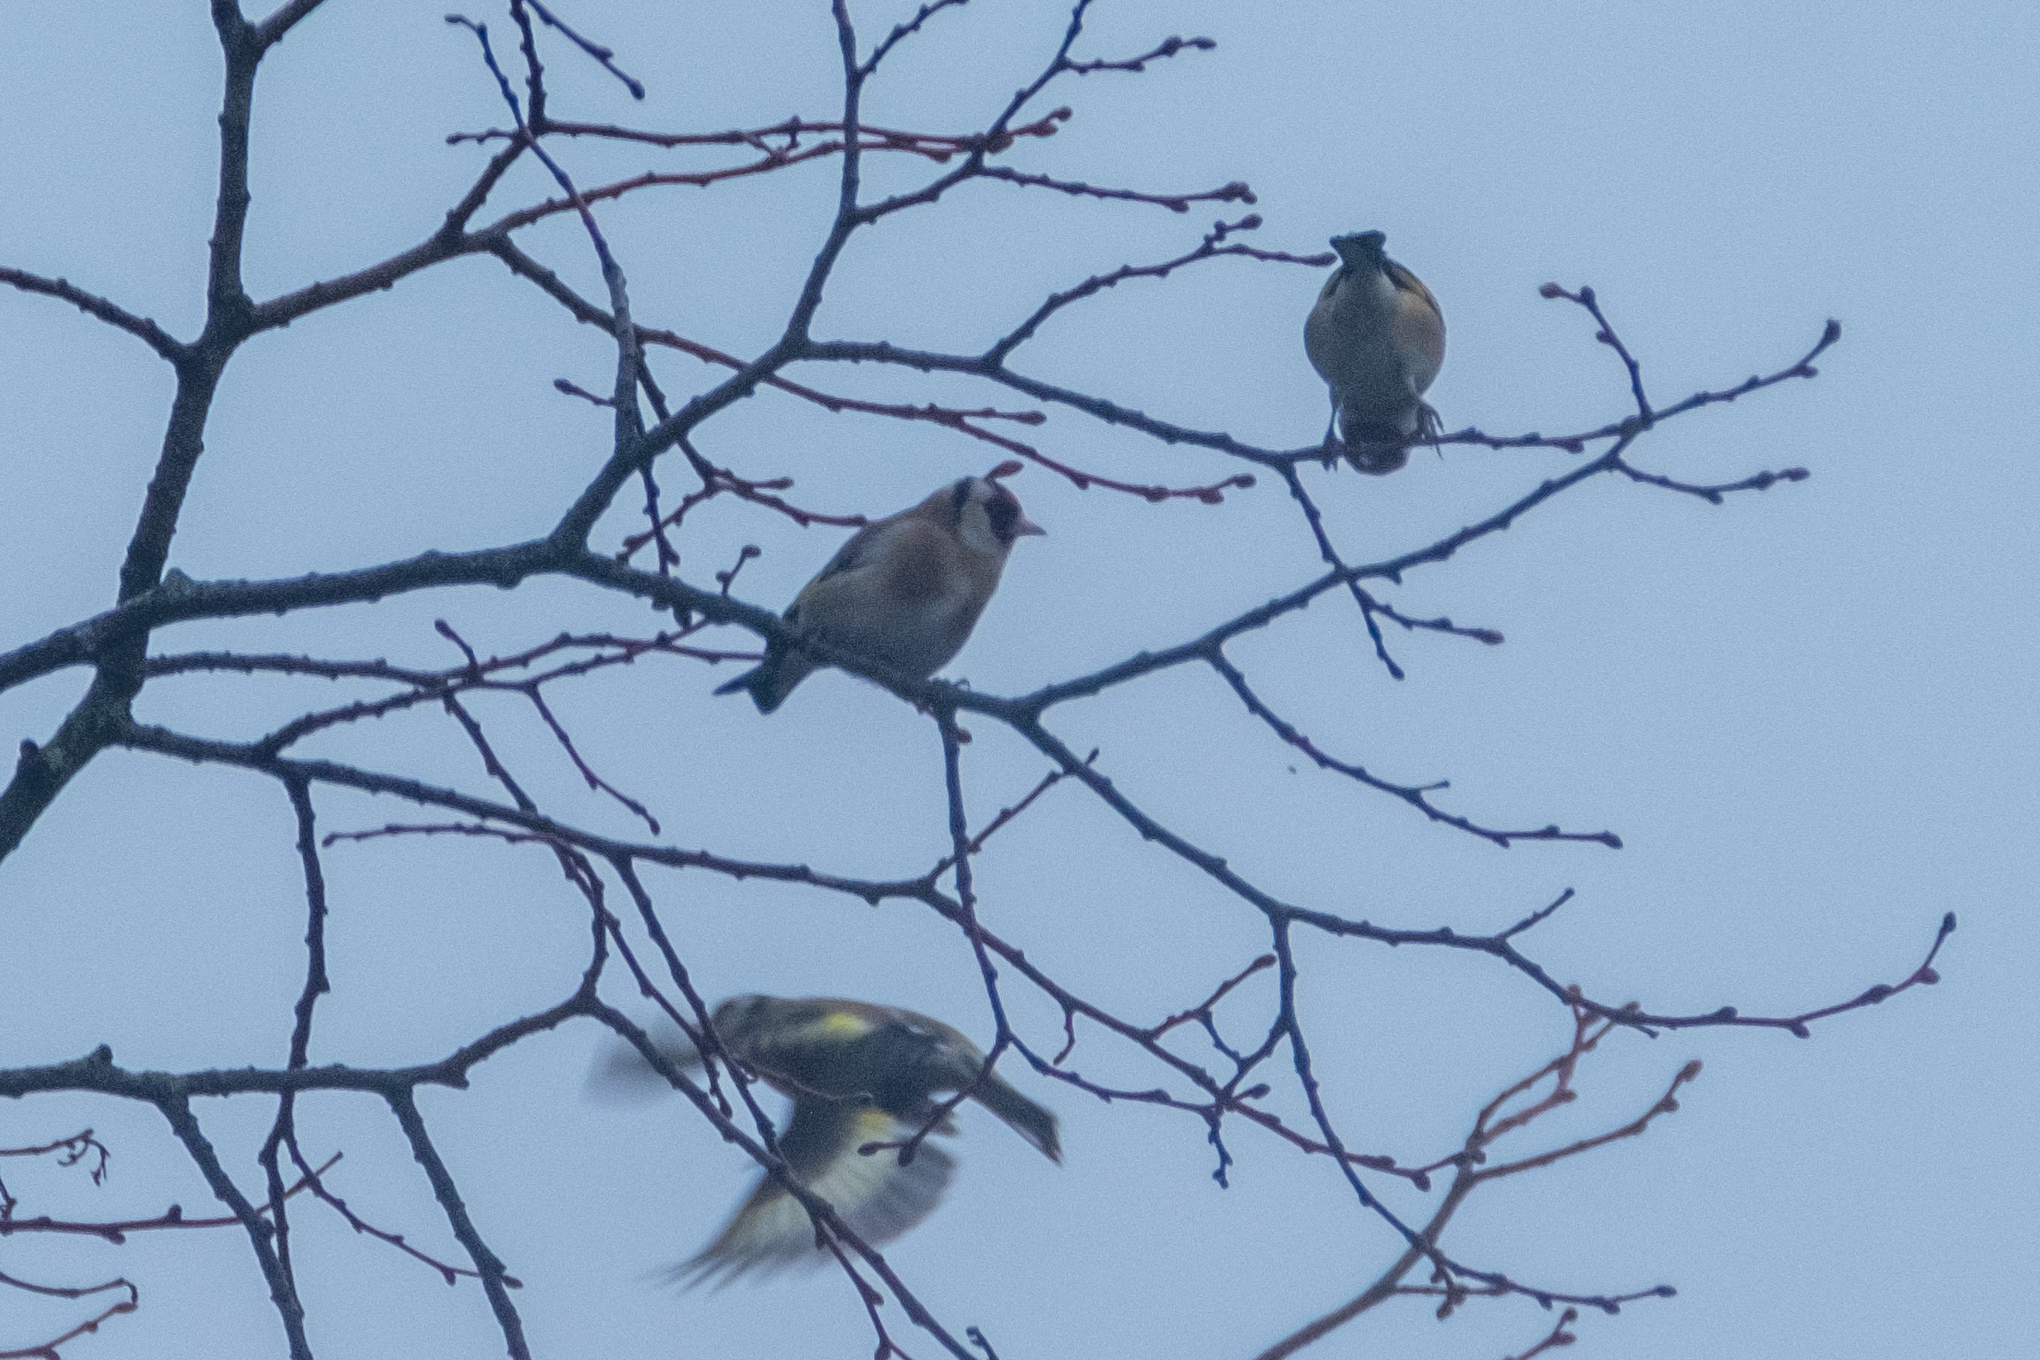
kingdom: Animalia
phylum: Chordata
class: Aves
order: Passeriformes
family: Fringillidae
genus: Carduelis
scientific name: Carduelis carduelis
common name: European goldfinch
